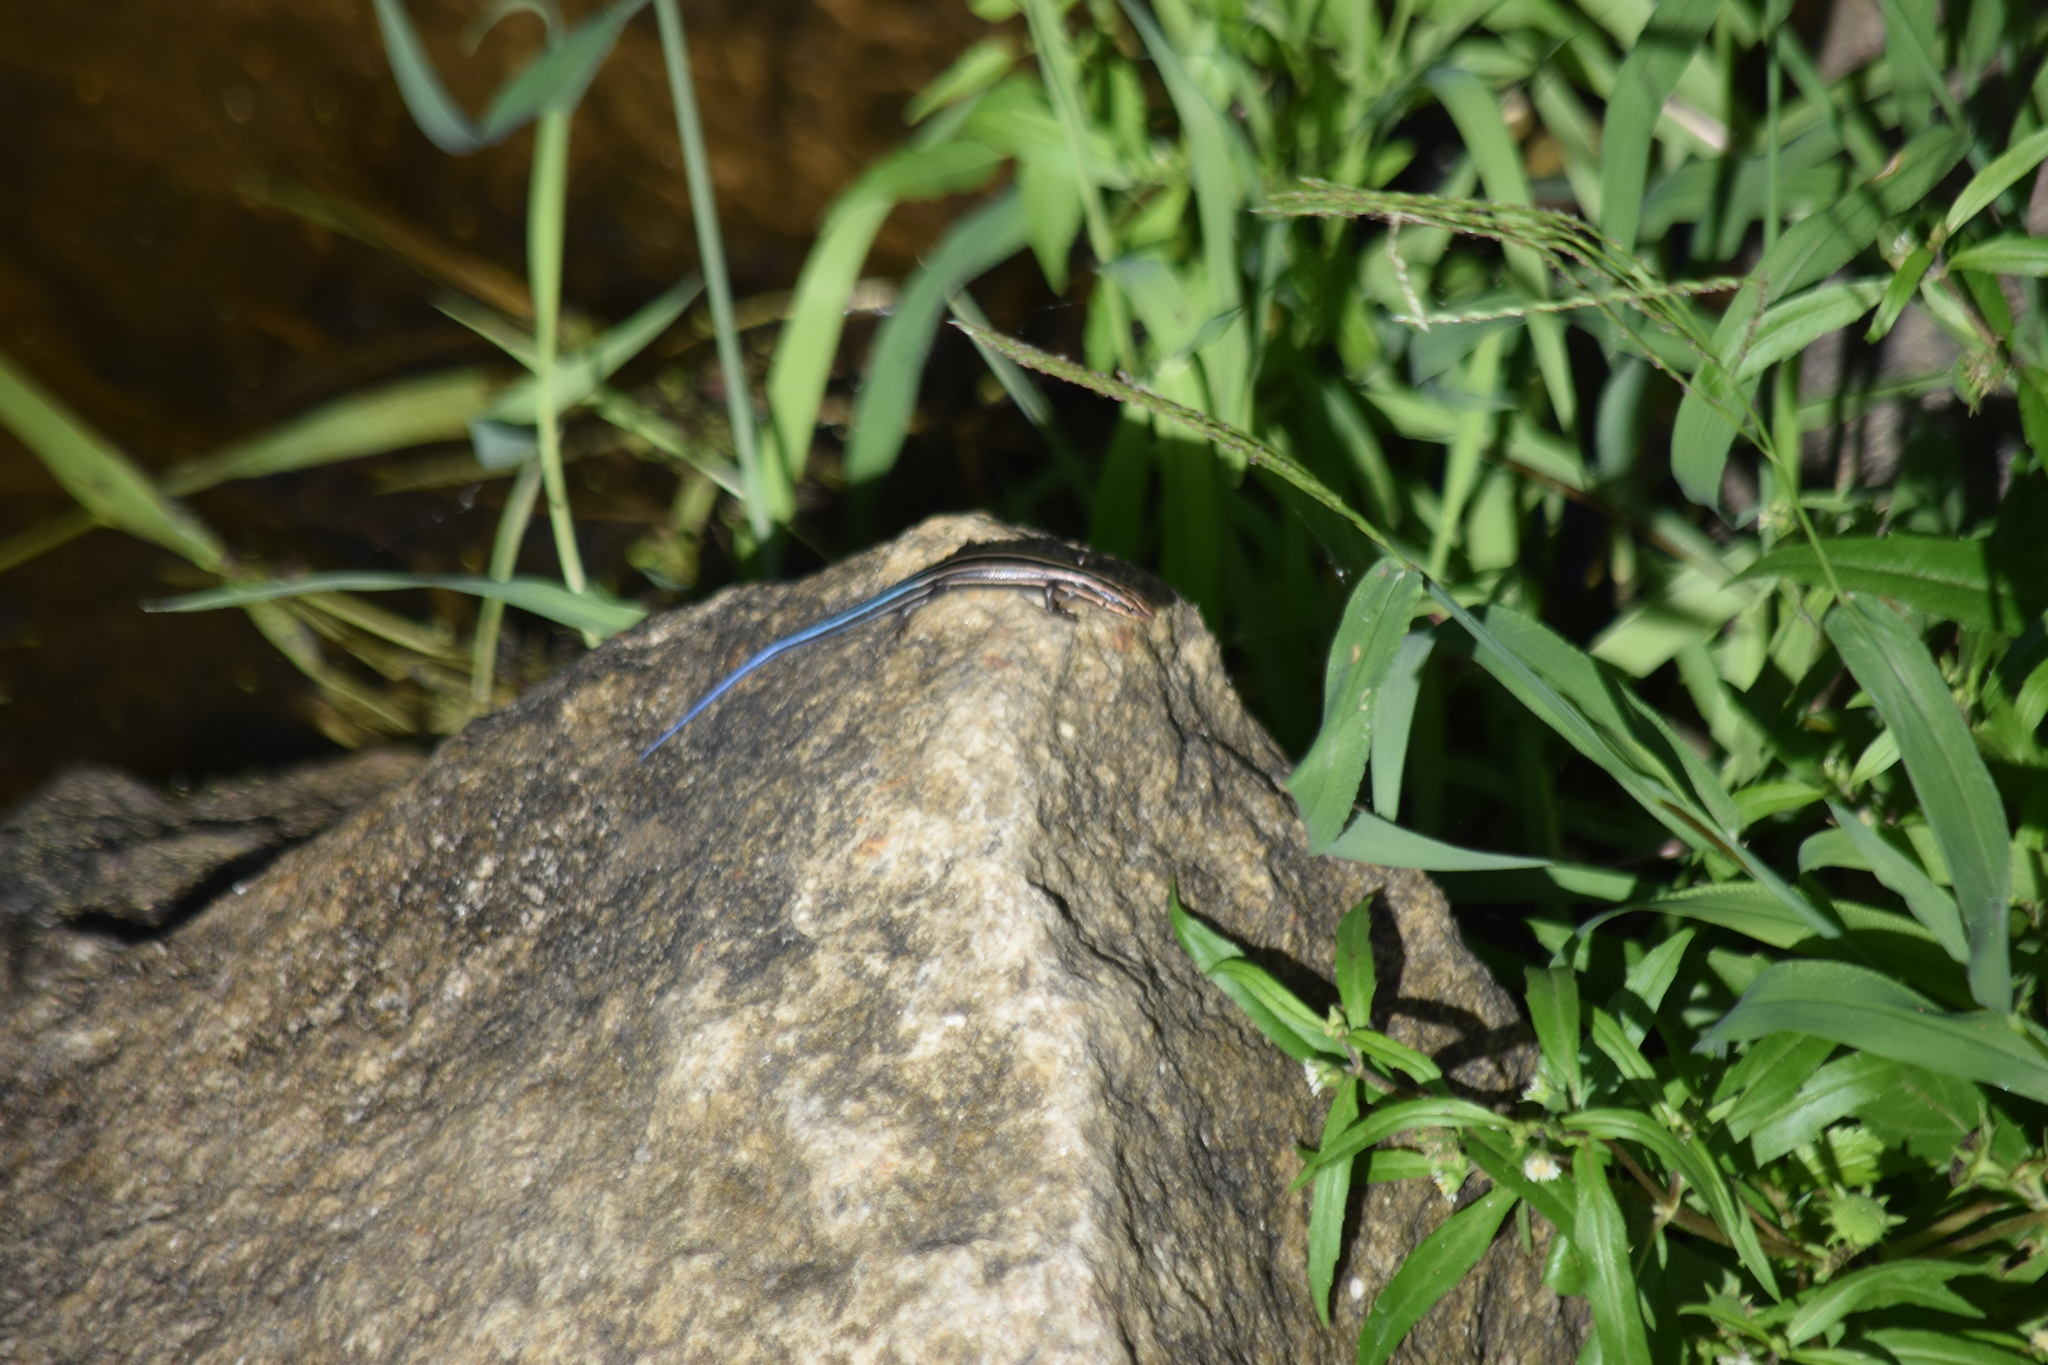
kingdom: Animalia
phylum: Chordata
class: Squamata
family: Scincidae
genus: Plestiodon
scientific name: Plestiodon fasciatus
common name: Five-lined skink
